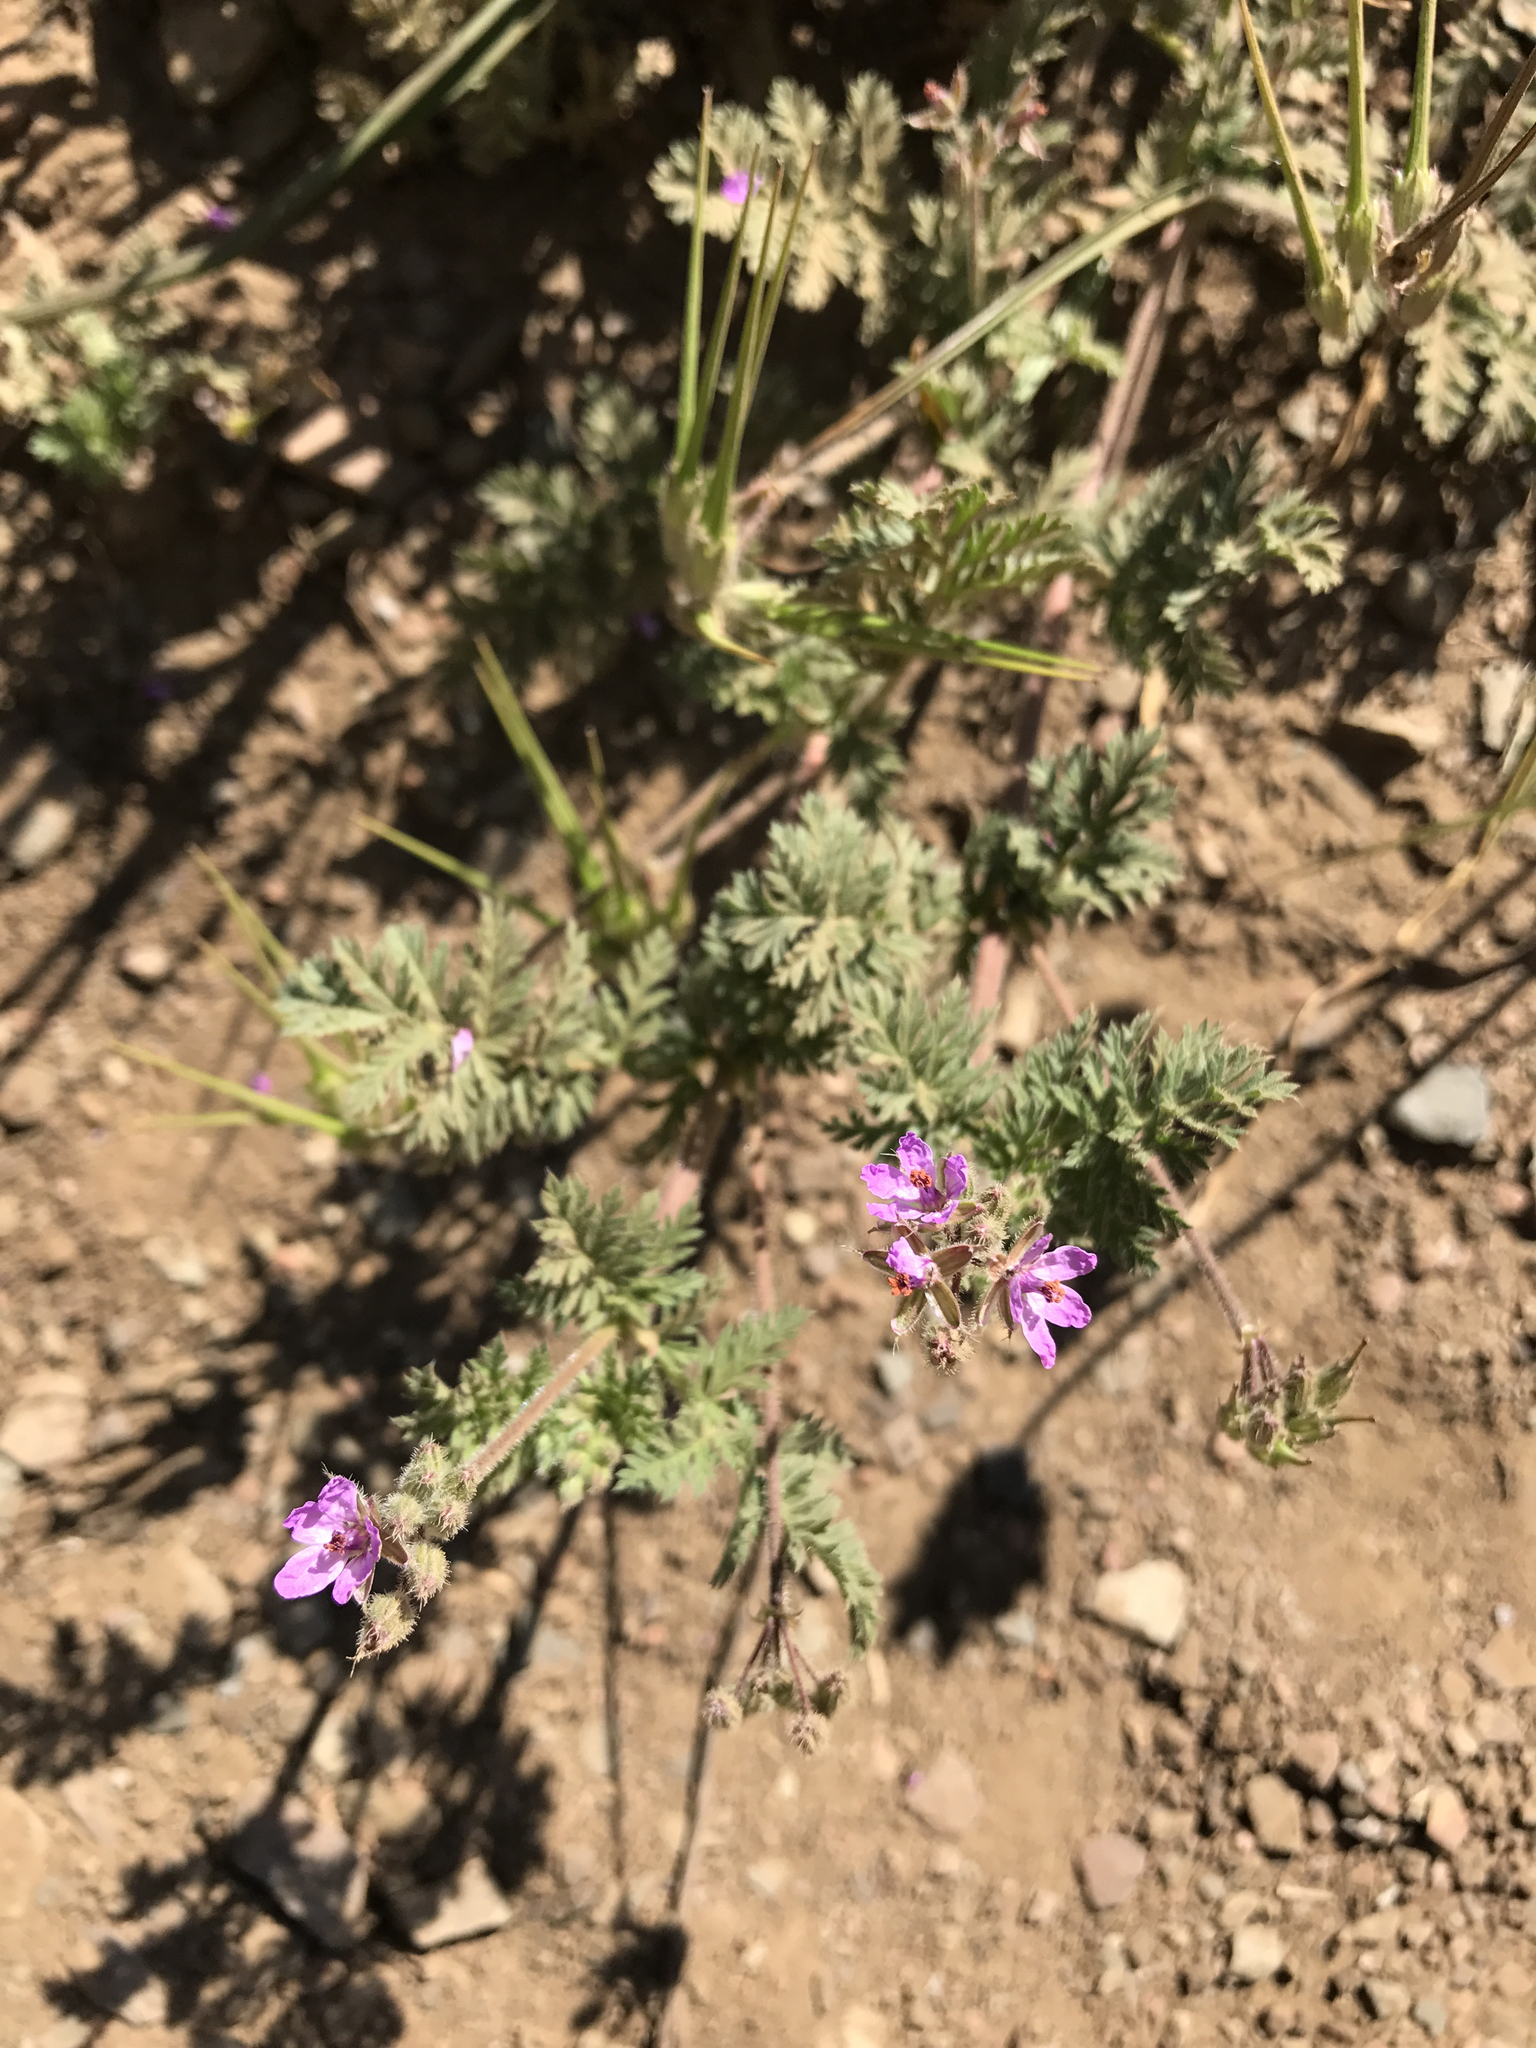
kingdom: Plantae
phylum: Tracheophyta
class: Magnoliopsida
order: Geraniales
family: Geraniaceae
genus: Erodium
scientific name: Erodium cicutarium
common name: Common stork's-bill
